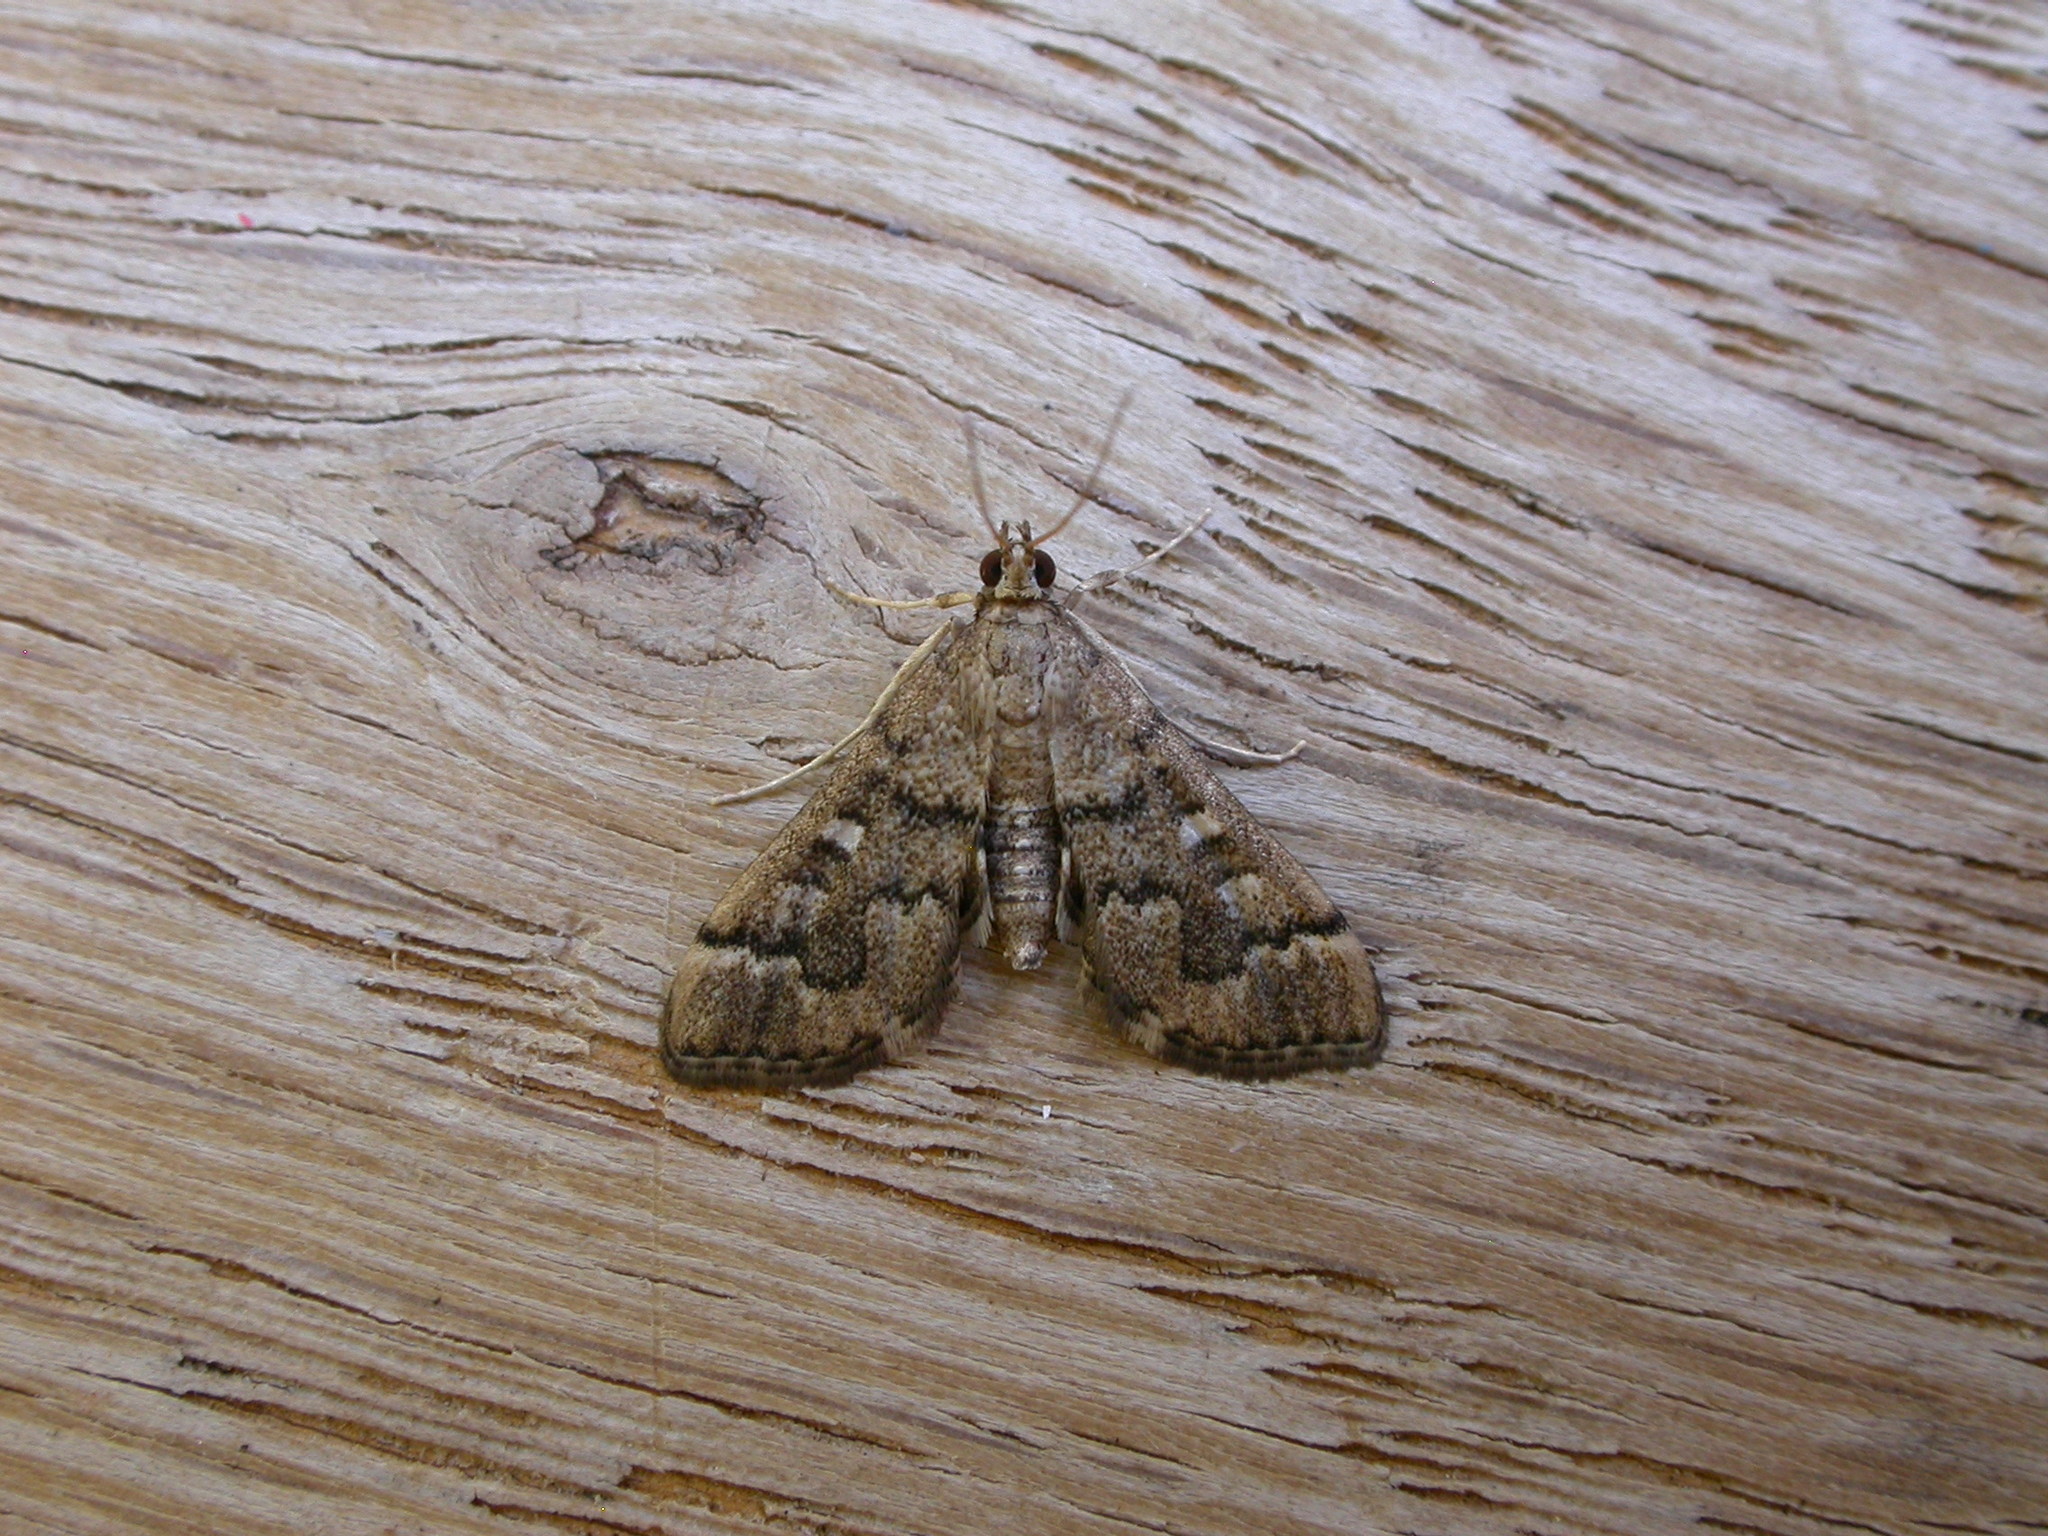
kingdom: Animalia
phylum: Arthropoda
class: Insecta
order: Lepidoptera
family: Crambidae
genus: Nacoleia
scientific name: Nacoleia rhoeoalis
